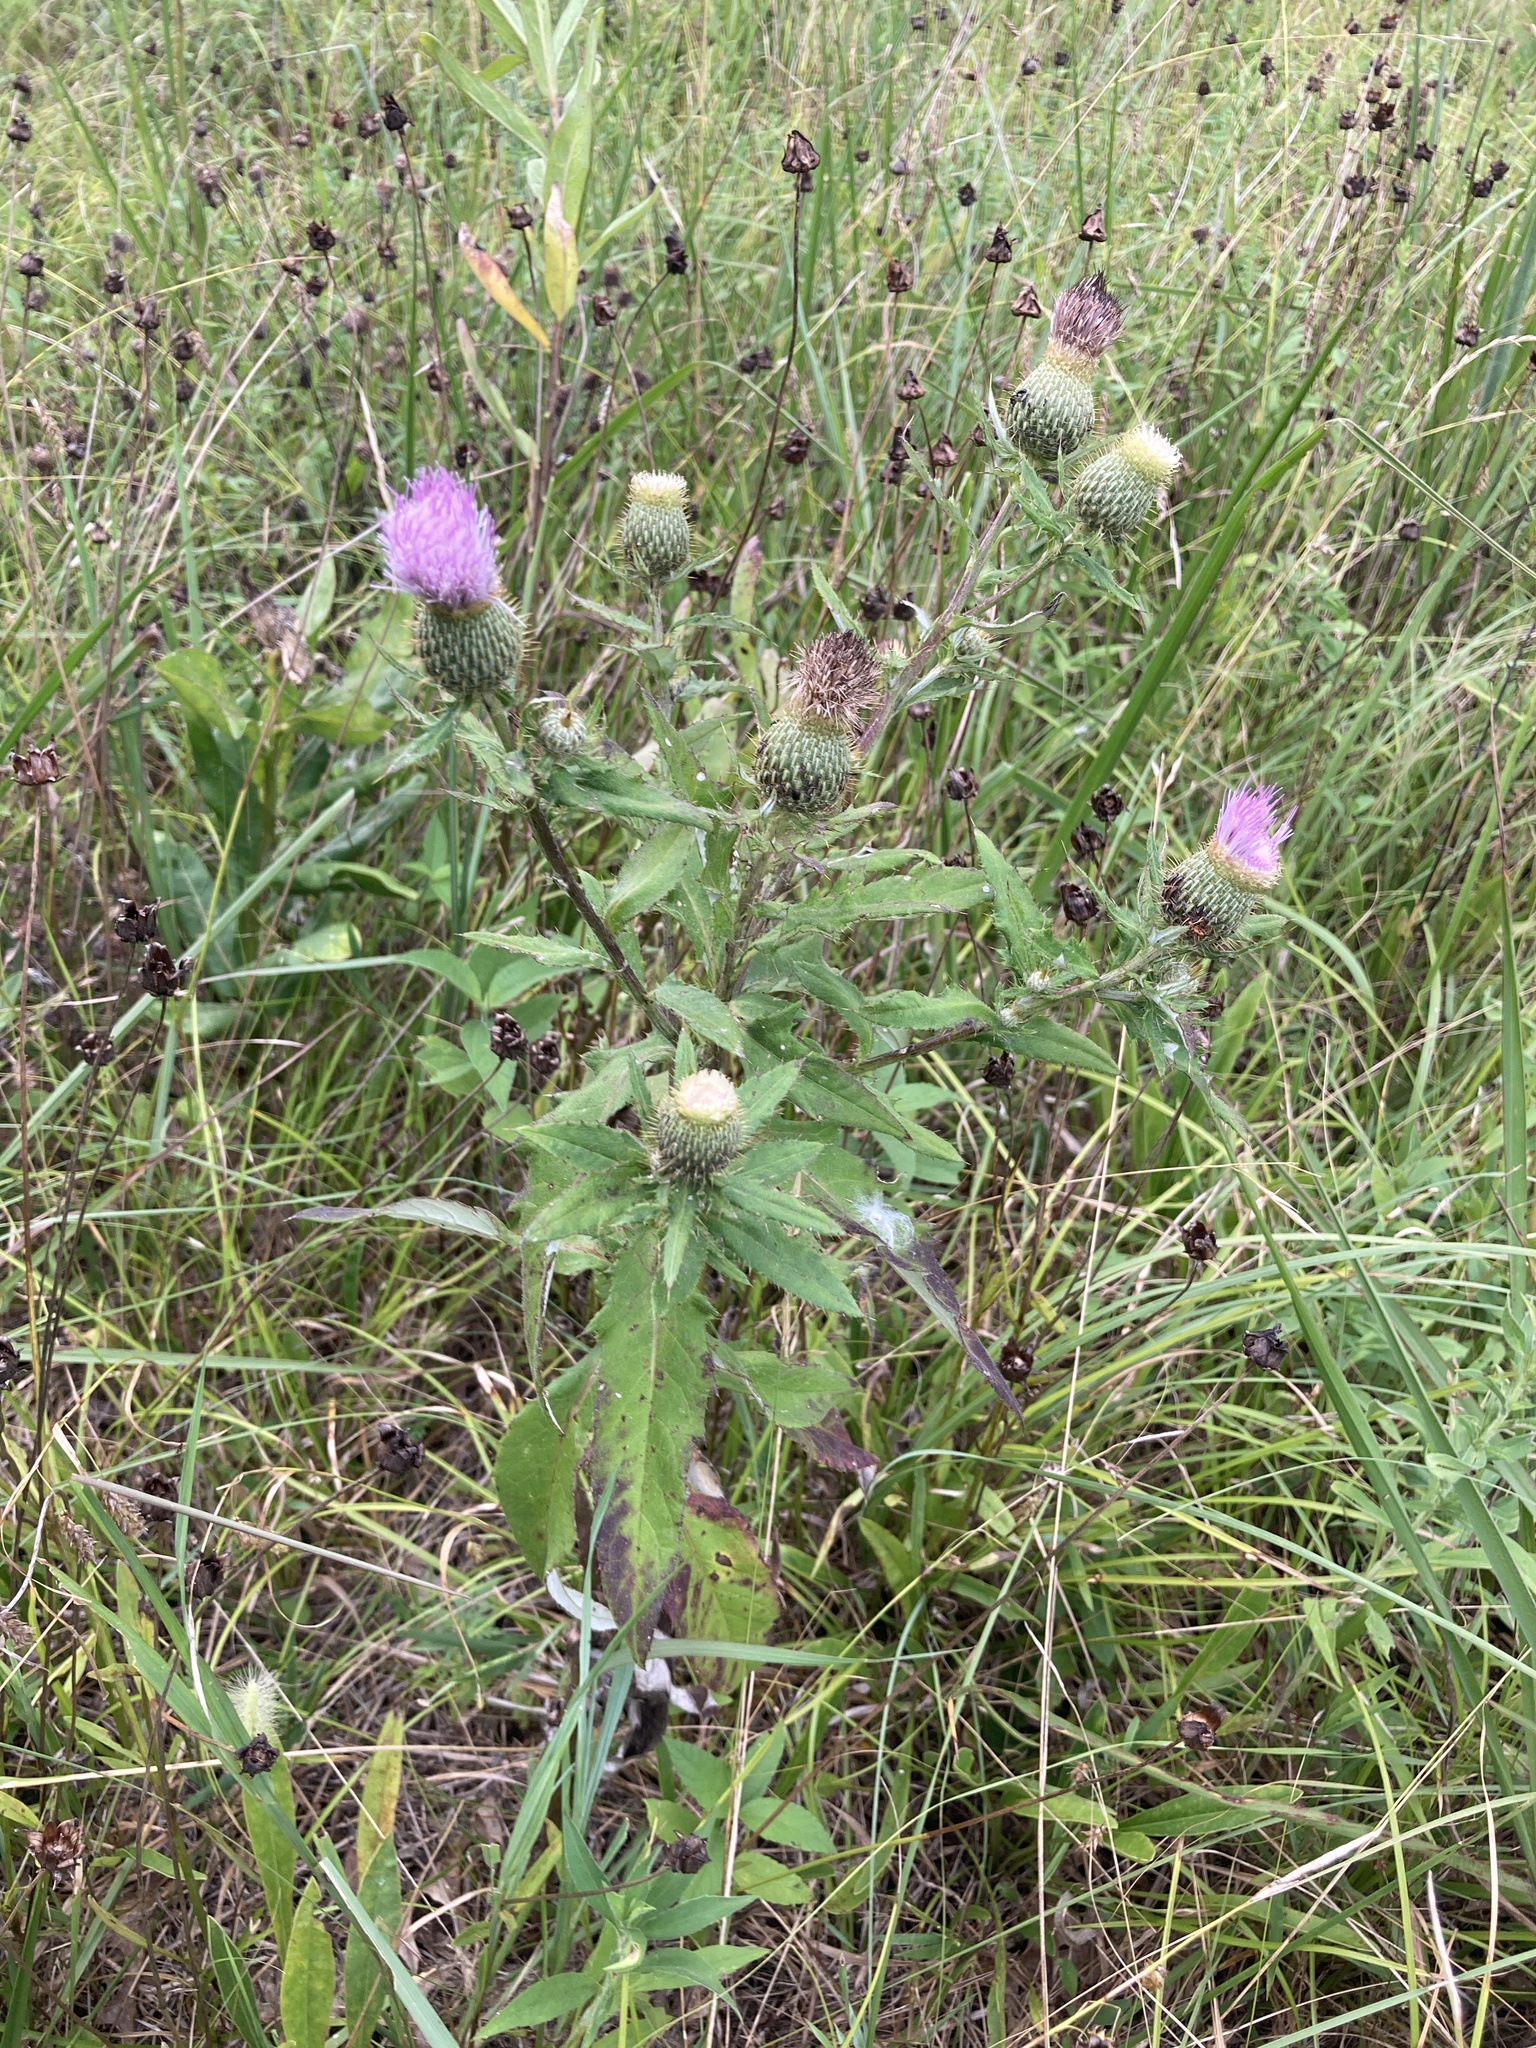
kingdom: Plantae
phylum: Tracheophyta
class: Magnoliopsida
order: Asterales
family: Asteraceae
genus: Cirsium
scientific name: Cirsium altissimum
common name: Roadside thistle
